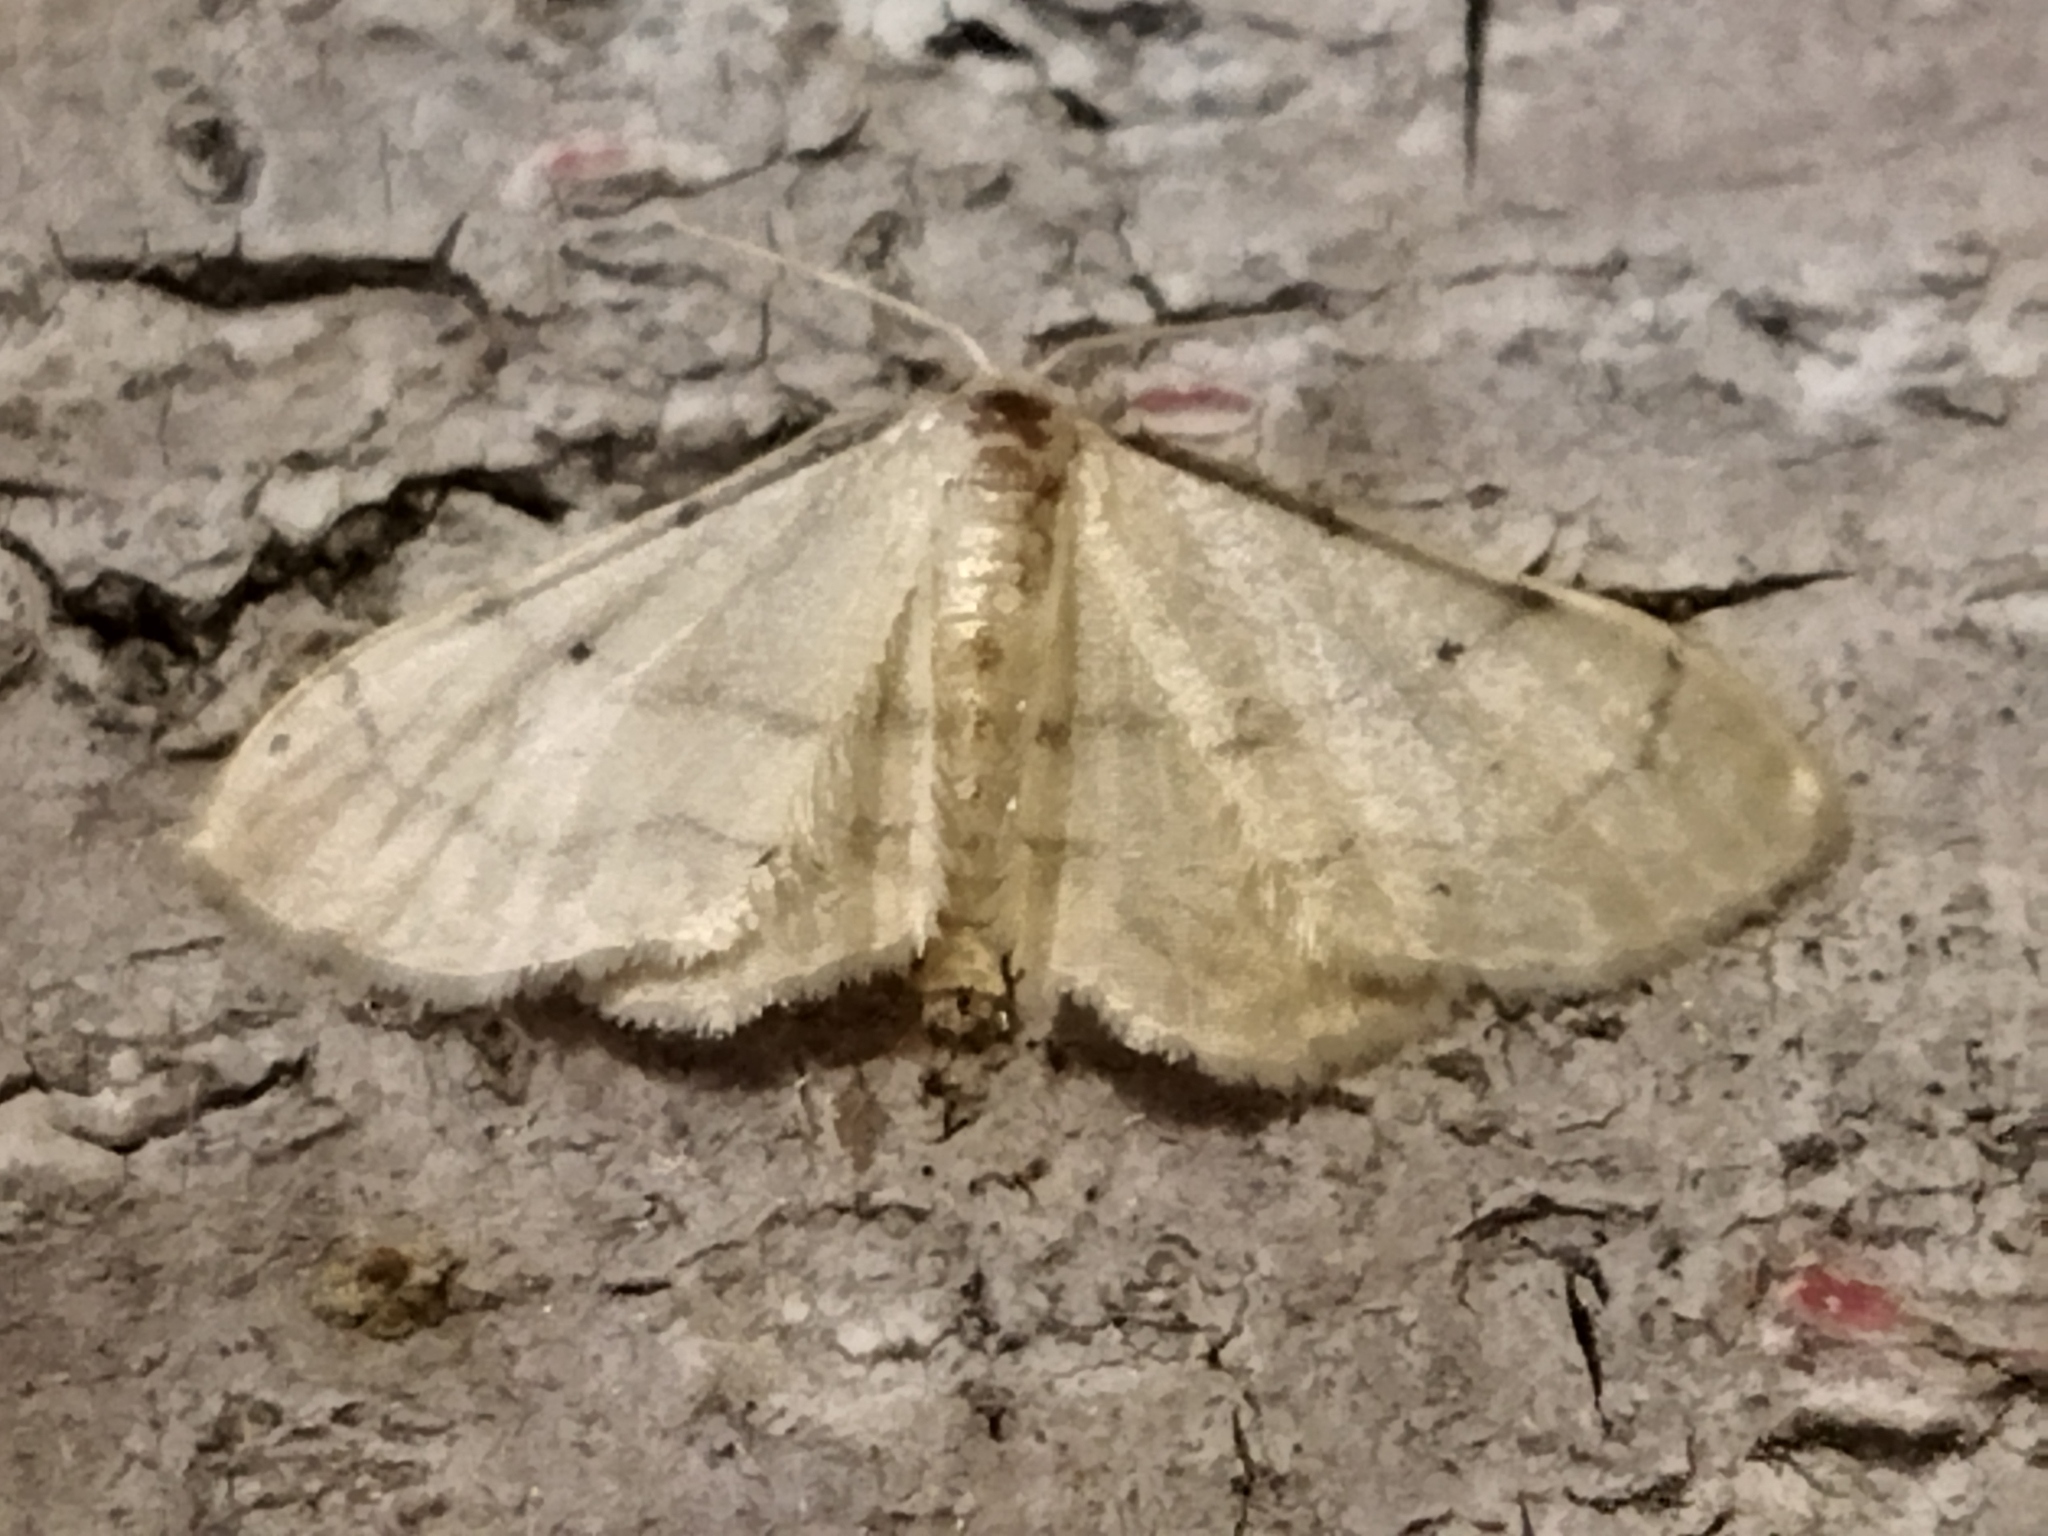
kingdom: Animalia
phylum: Arthropoda
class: Insecta
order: Lepidoptera
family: Geometridae
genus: Idaea
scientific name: Idaea politaria
